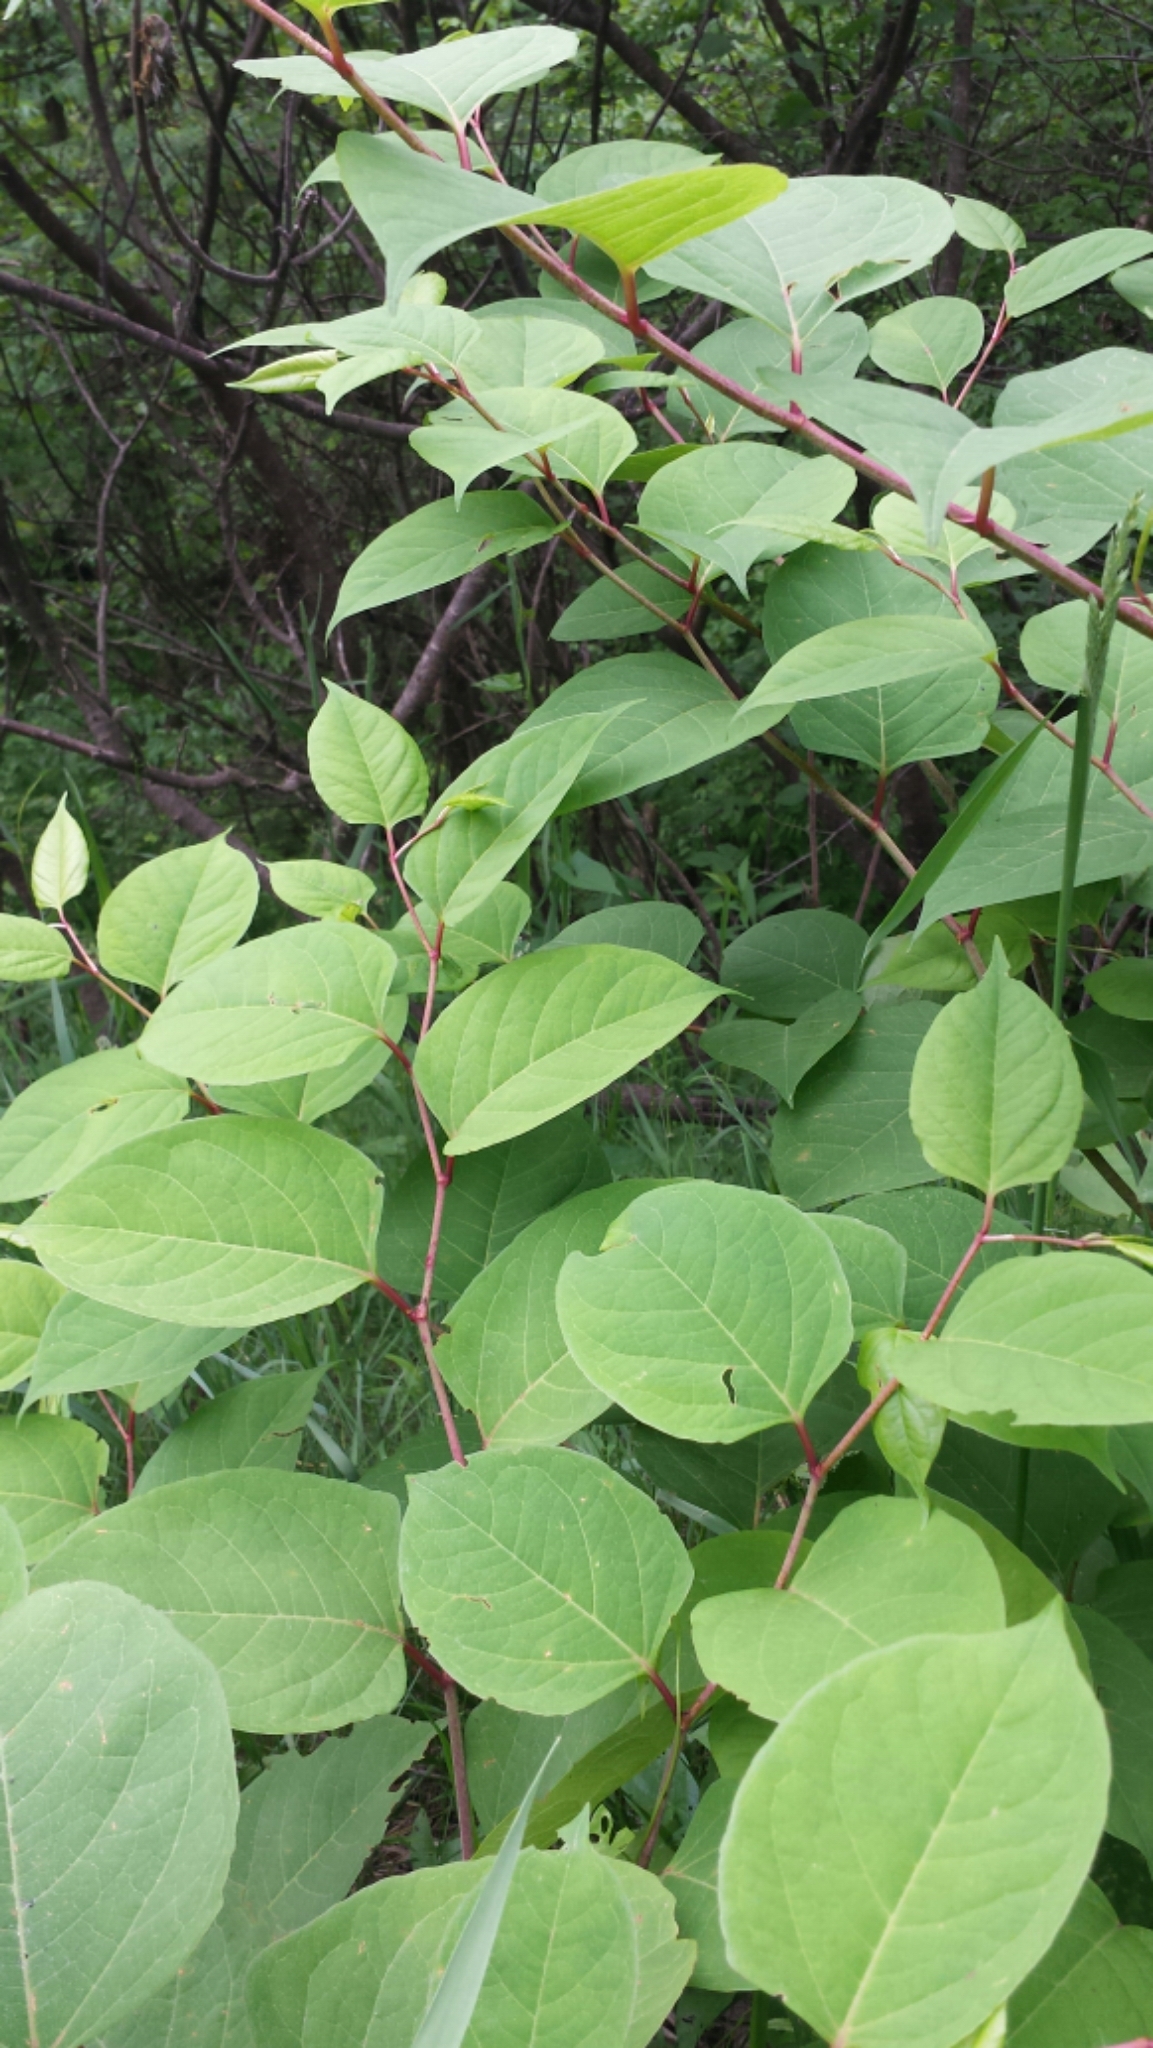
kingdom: Plantae
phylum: Tracheophyta
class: Magnoliopsida
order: Caryophyllales
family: Polygonaceae
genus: Reynoutria
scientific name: Reynoutria japonica
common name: Japanese knotweed
